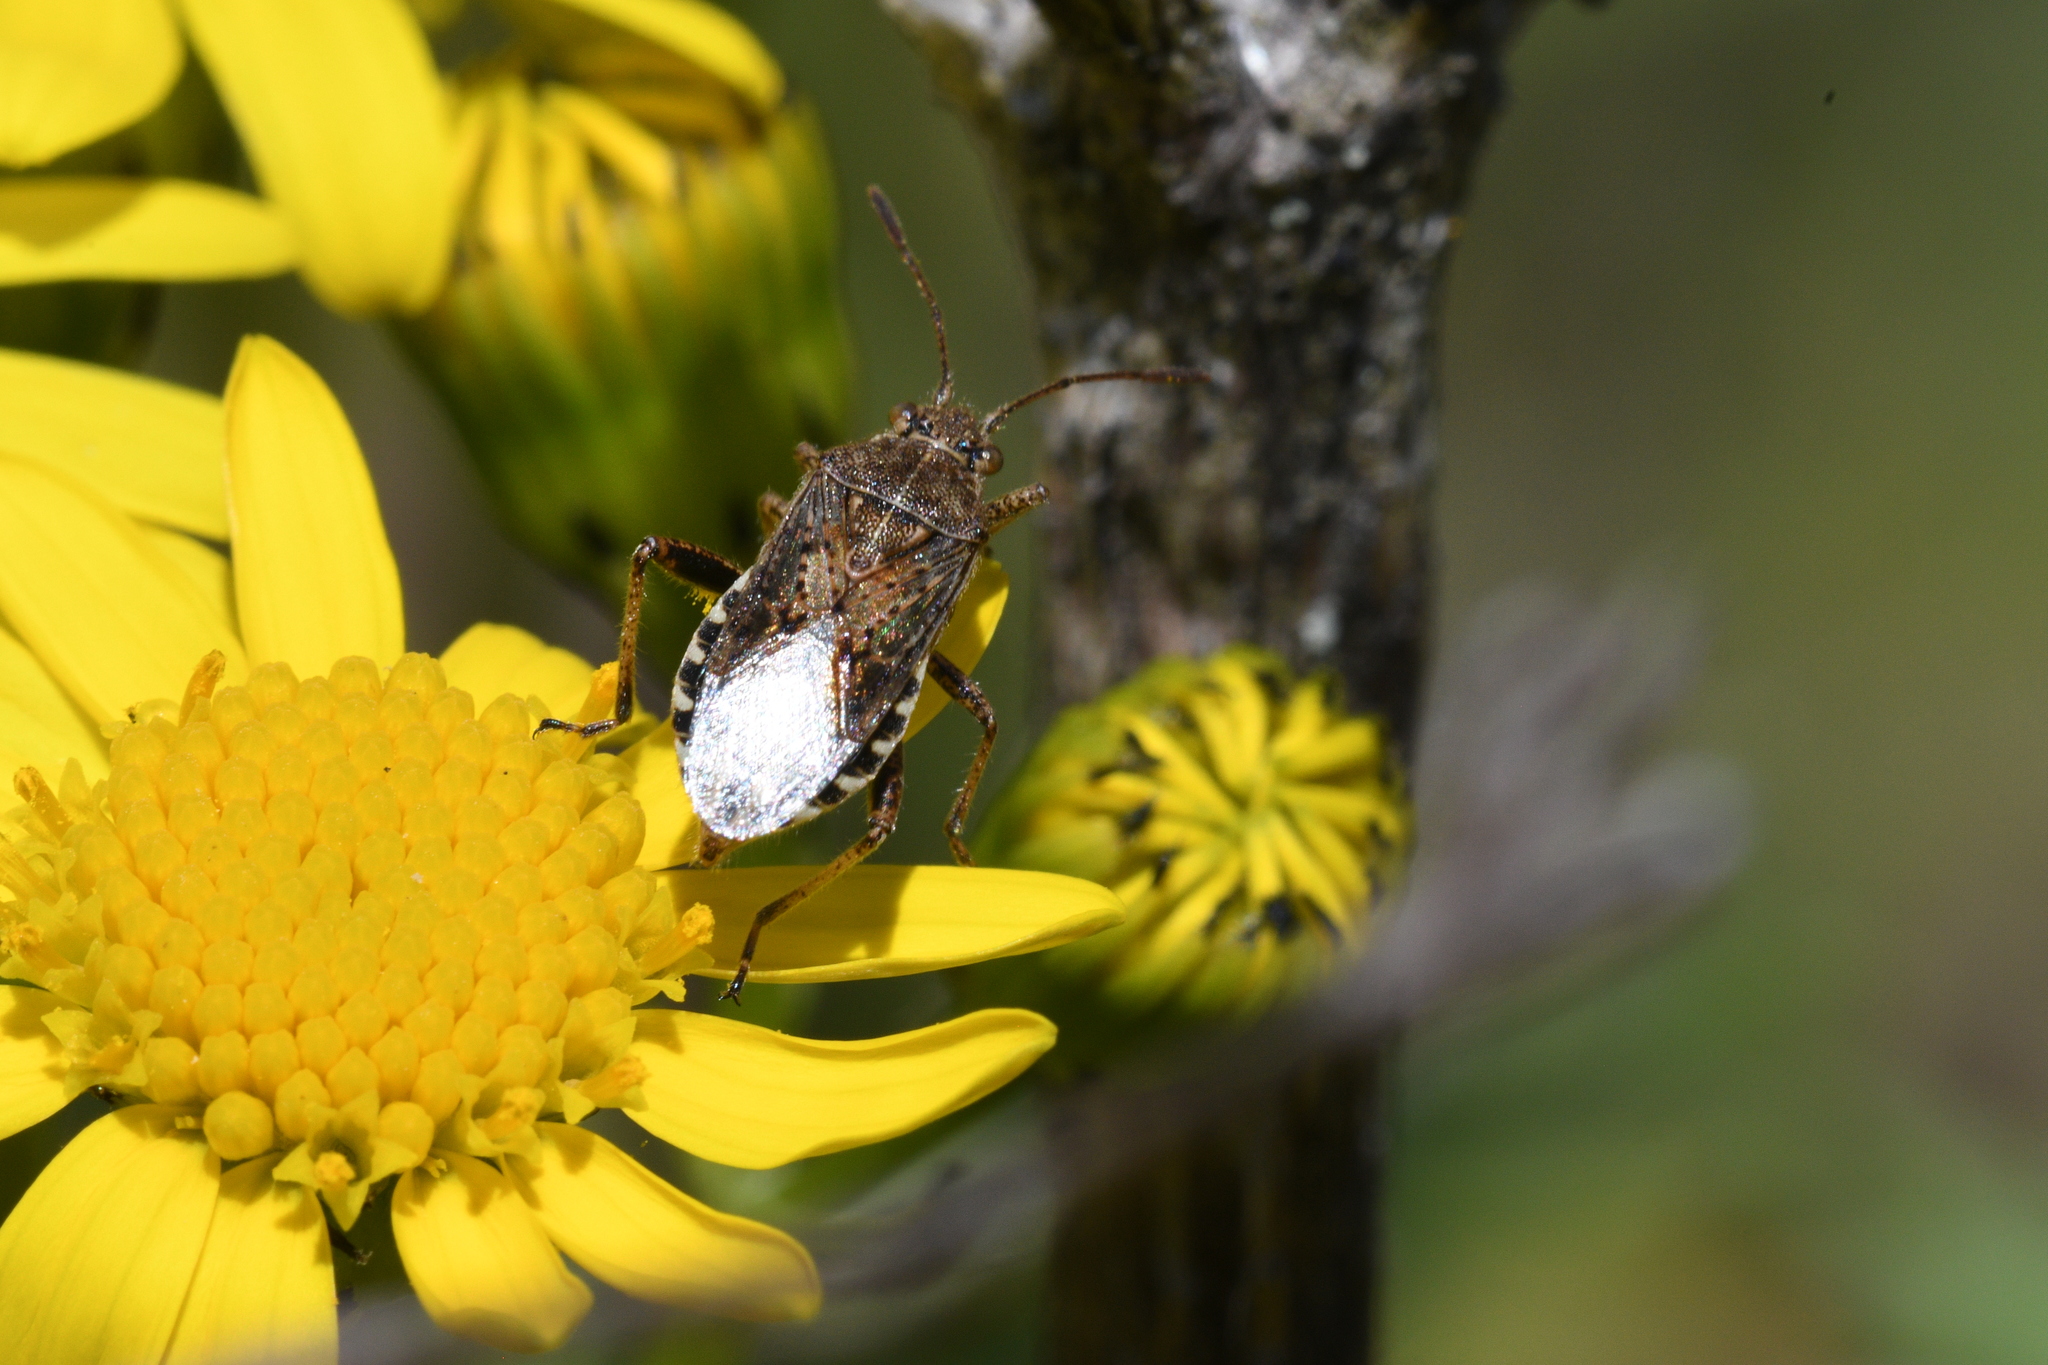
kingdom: Animalia
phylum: Arthropoda
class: Insecta
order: Hemiptera
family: Rhopalidae
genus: Stictopleurus
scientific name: Stictopleurus punctatonervosus
